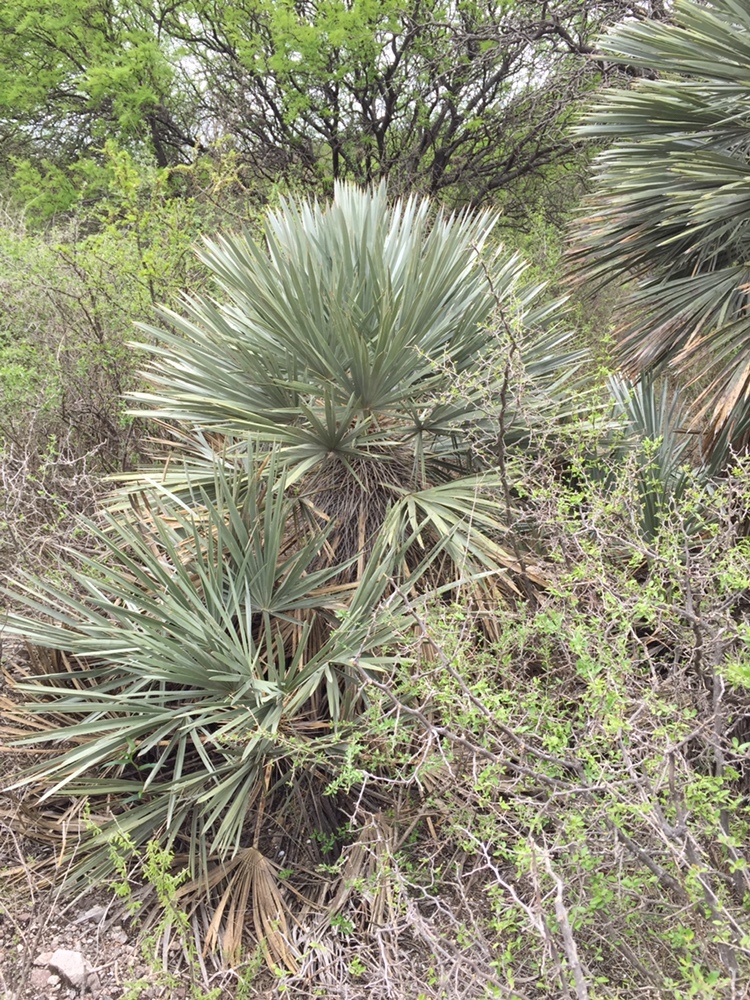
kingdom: Plantae
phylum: Tracheophyta
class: Liliopsida
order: Arecales
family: Arecaceae
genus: Trithrinax
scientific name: Trithrinax campestris
